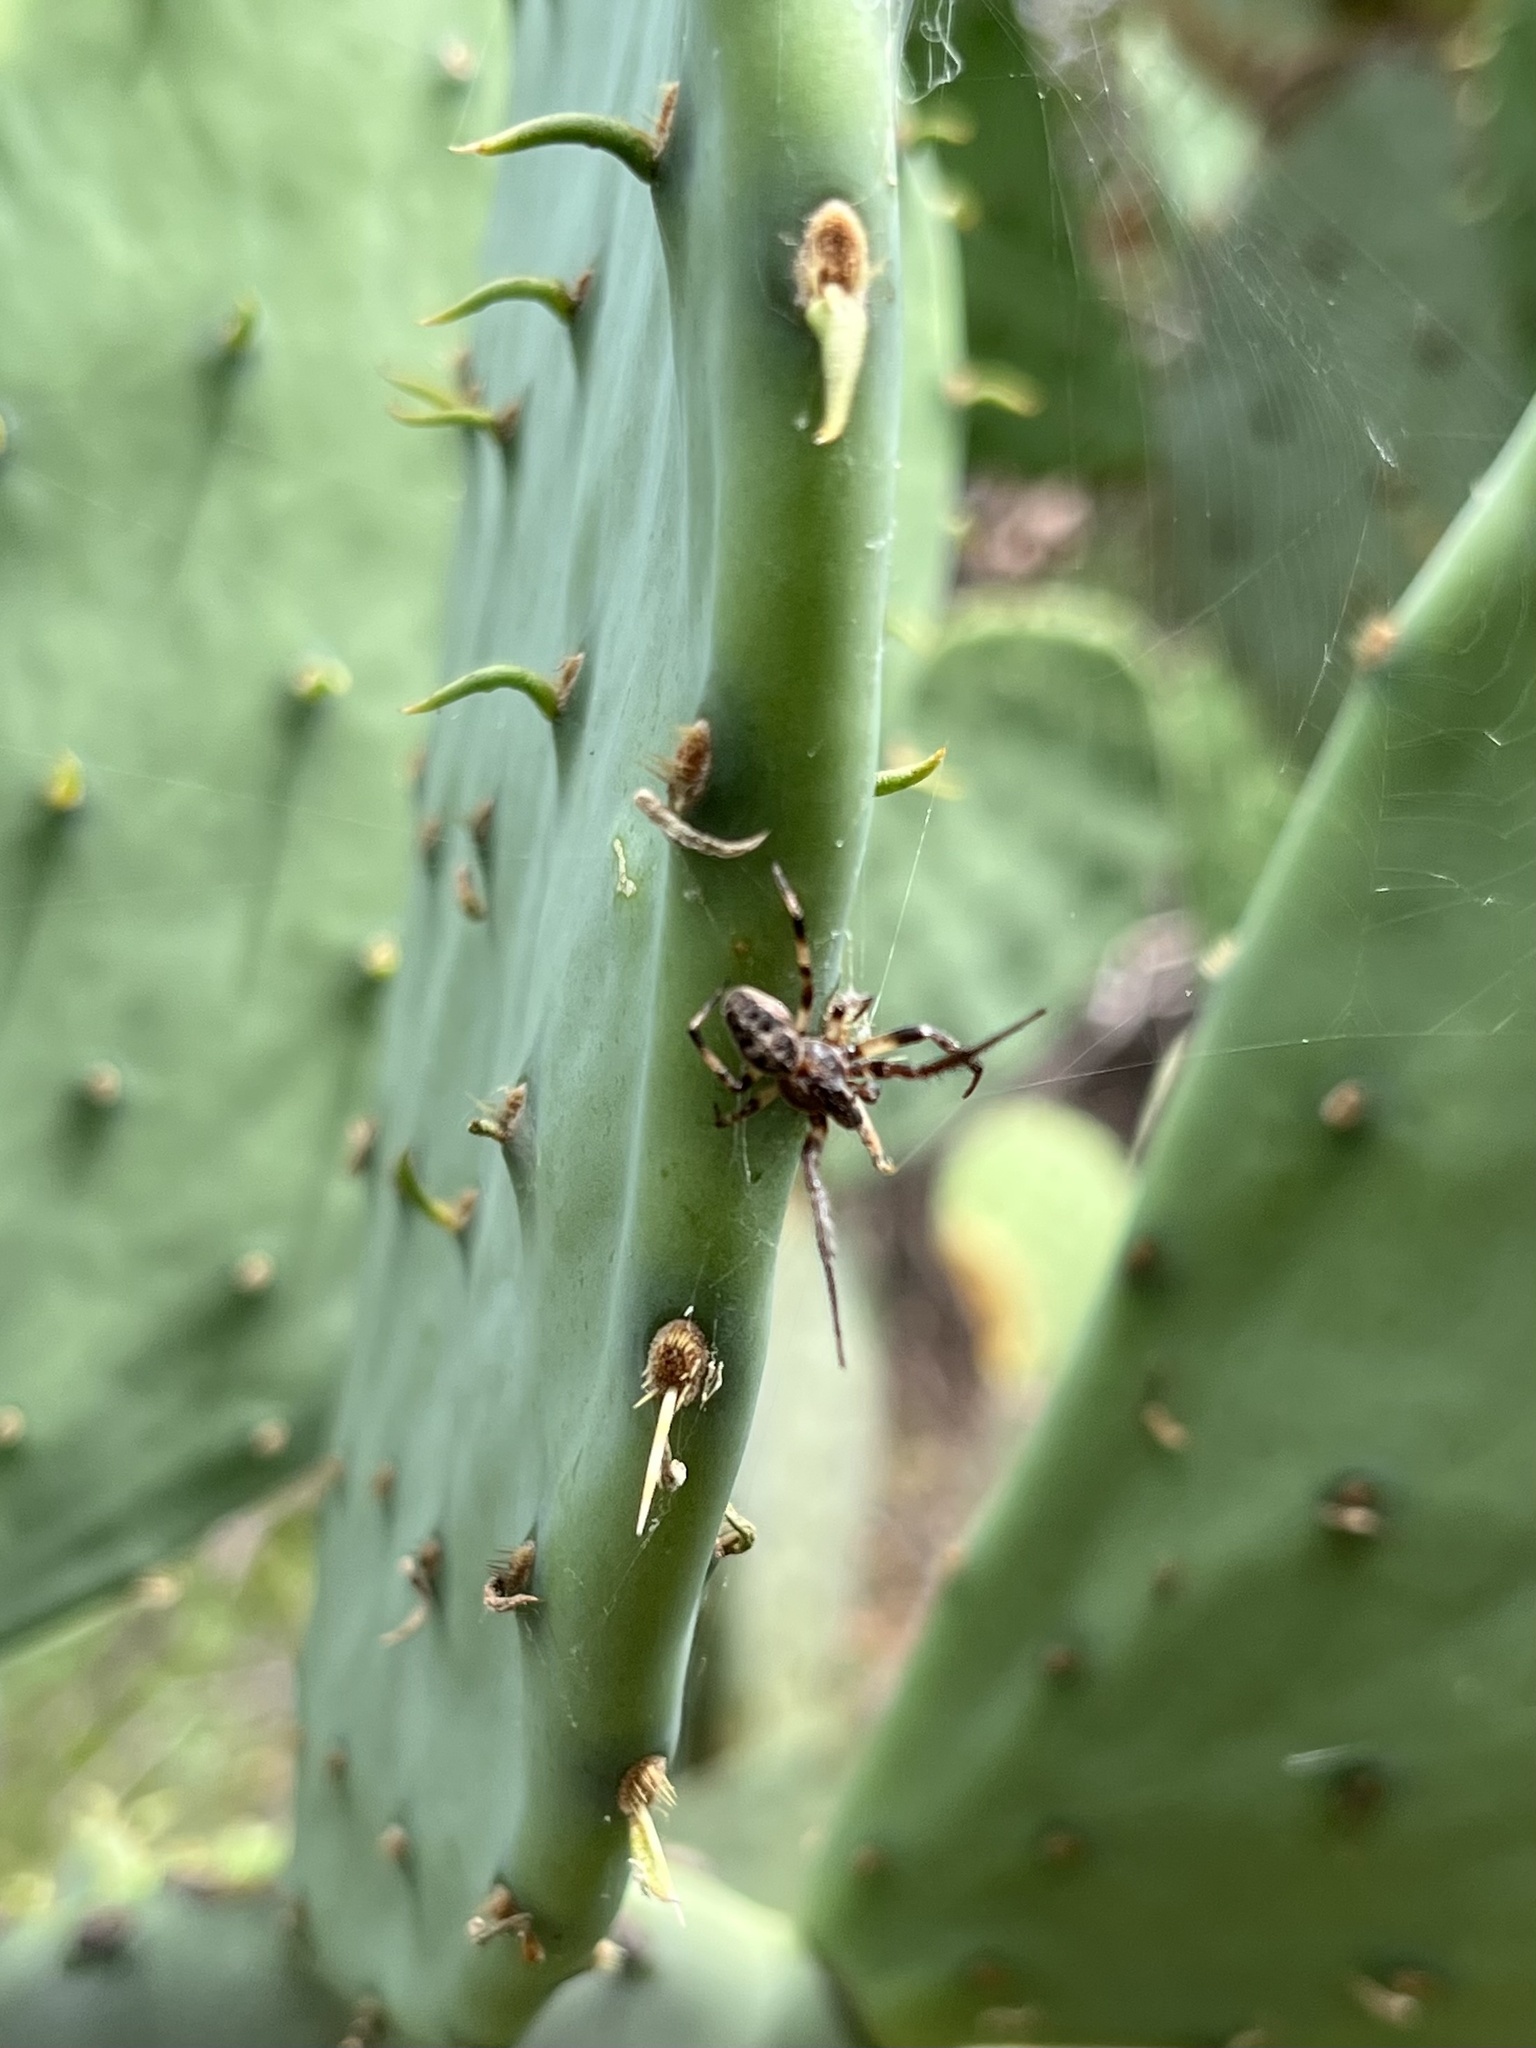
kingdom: Animalia
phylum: Arthropoda
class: Arachnida
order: Araneae
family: Araneidae
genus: Larinioides
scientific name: Larinioides cornutus
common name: Furrow orbweaver
